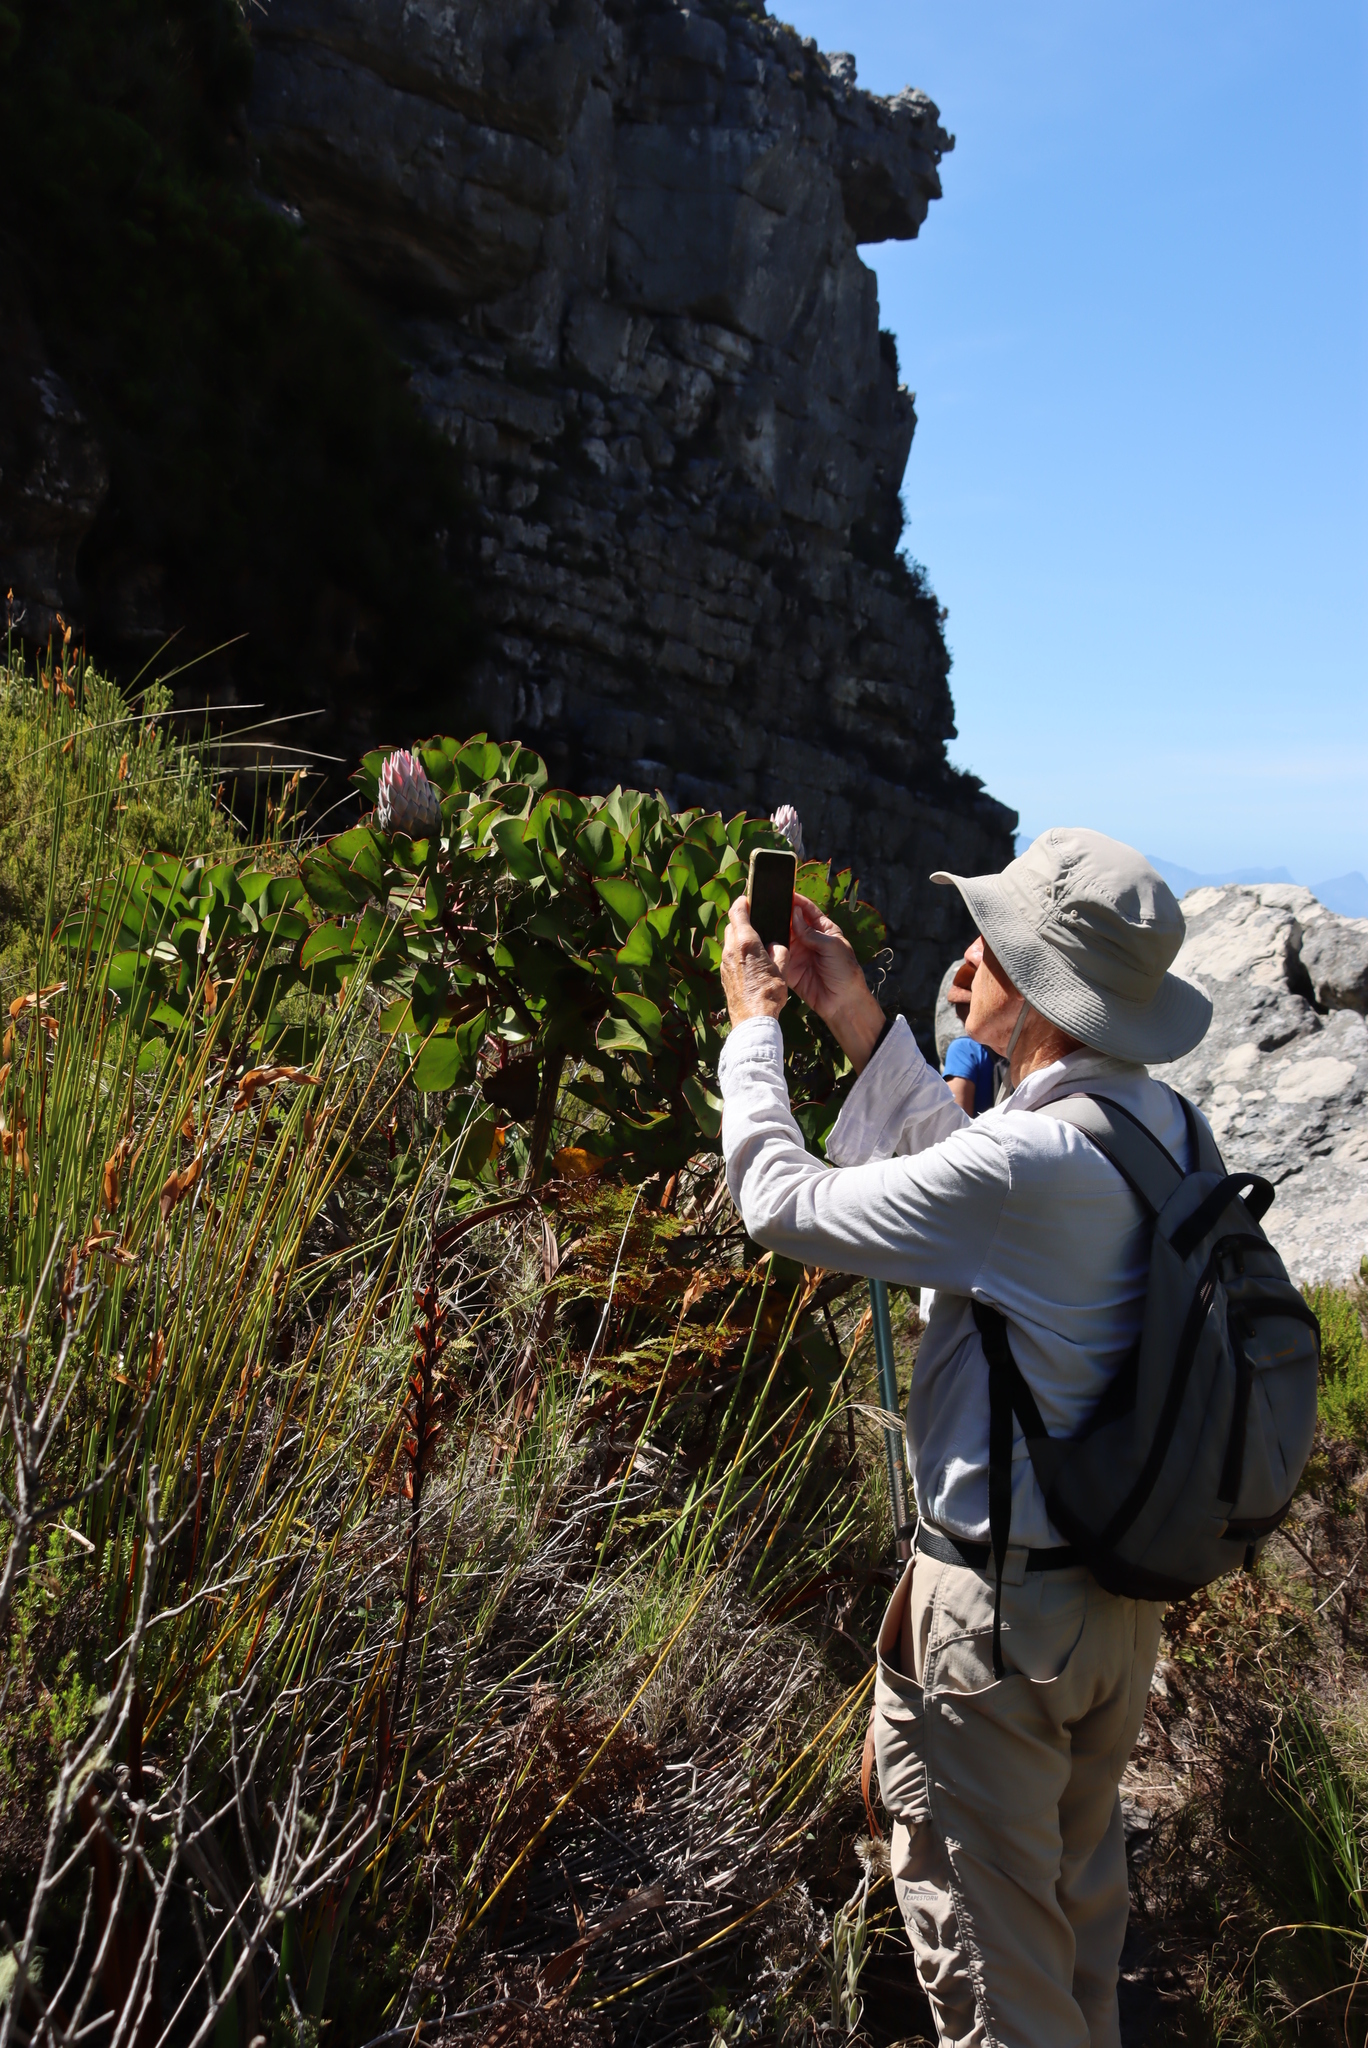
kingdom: Plantae
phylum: Tracheophyta
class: Magnoliopsida
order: Proteales
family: Proteaceae
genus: Protea
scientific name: Protea cynaroides
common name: King protea
